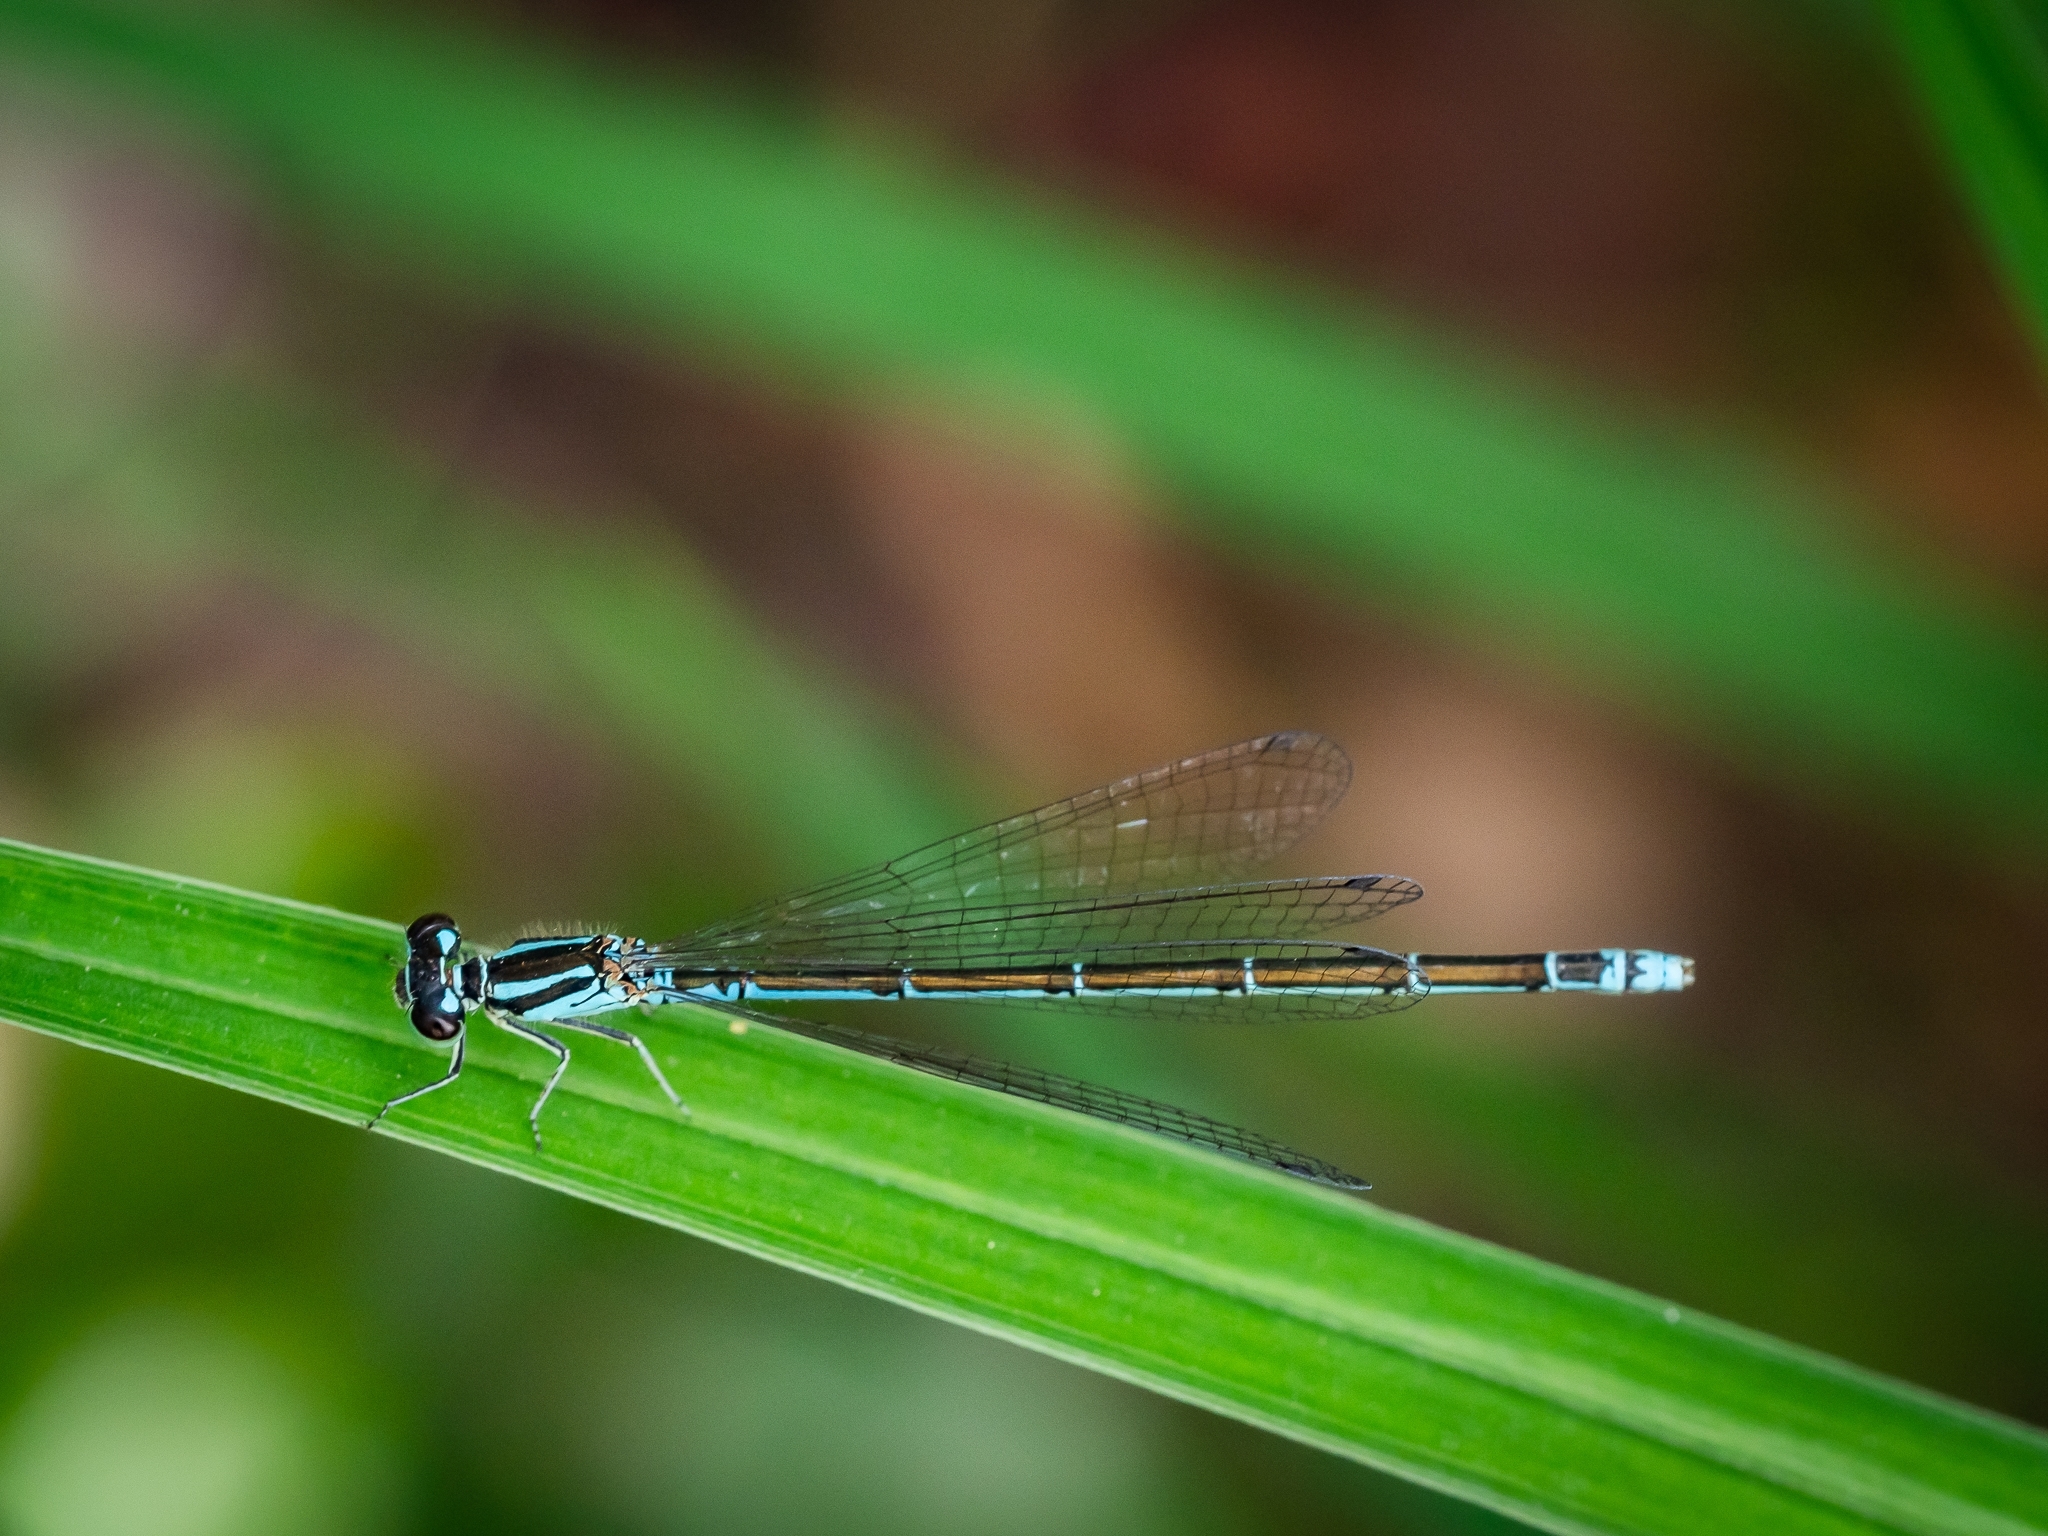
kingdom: Animalia
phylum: Arthropoda
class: Insecta
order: Odonata
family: Coenagrionidae
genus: Coenagrion
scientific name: Coenagrion johanssoni
